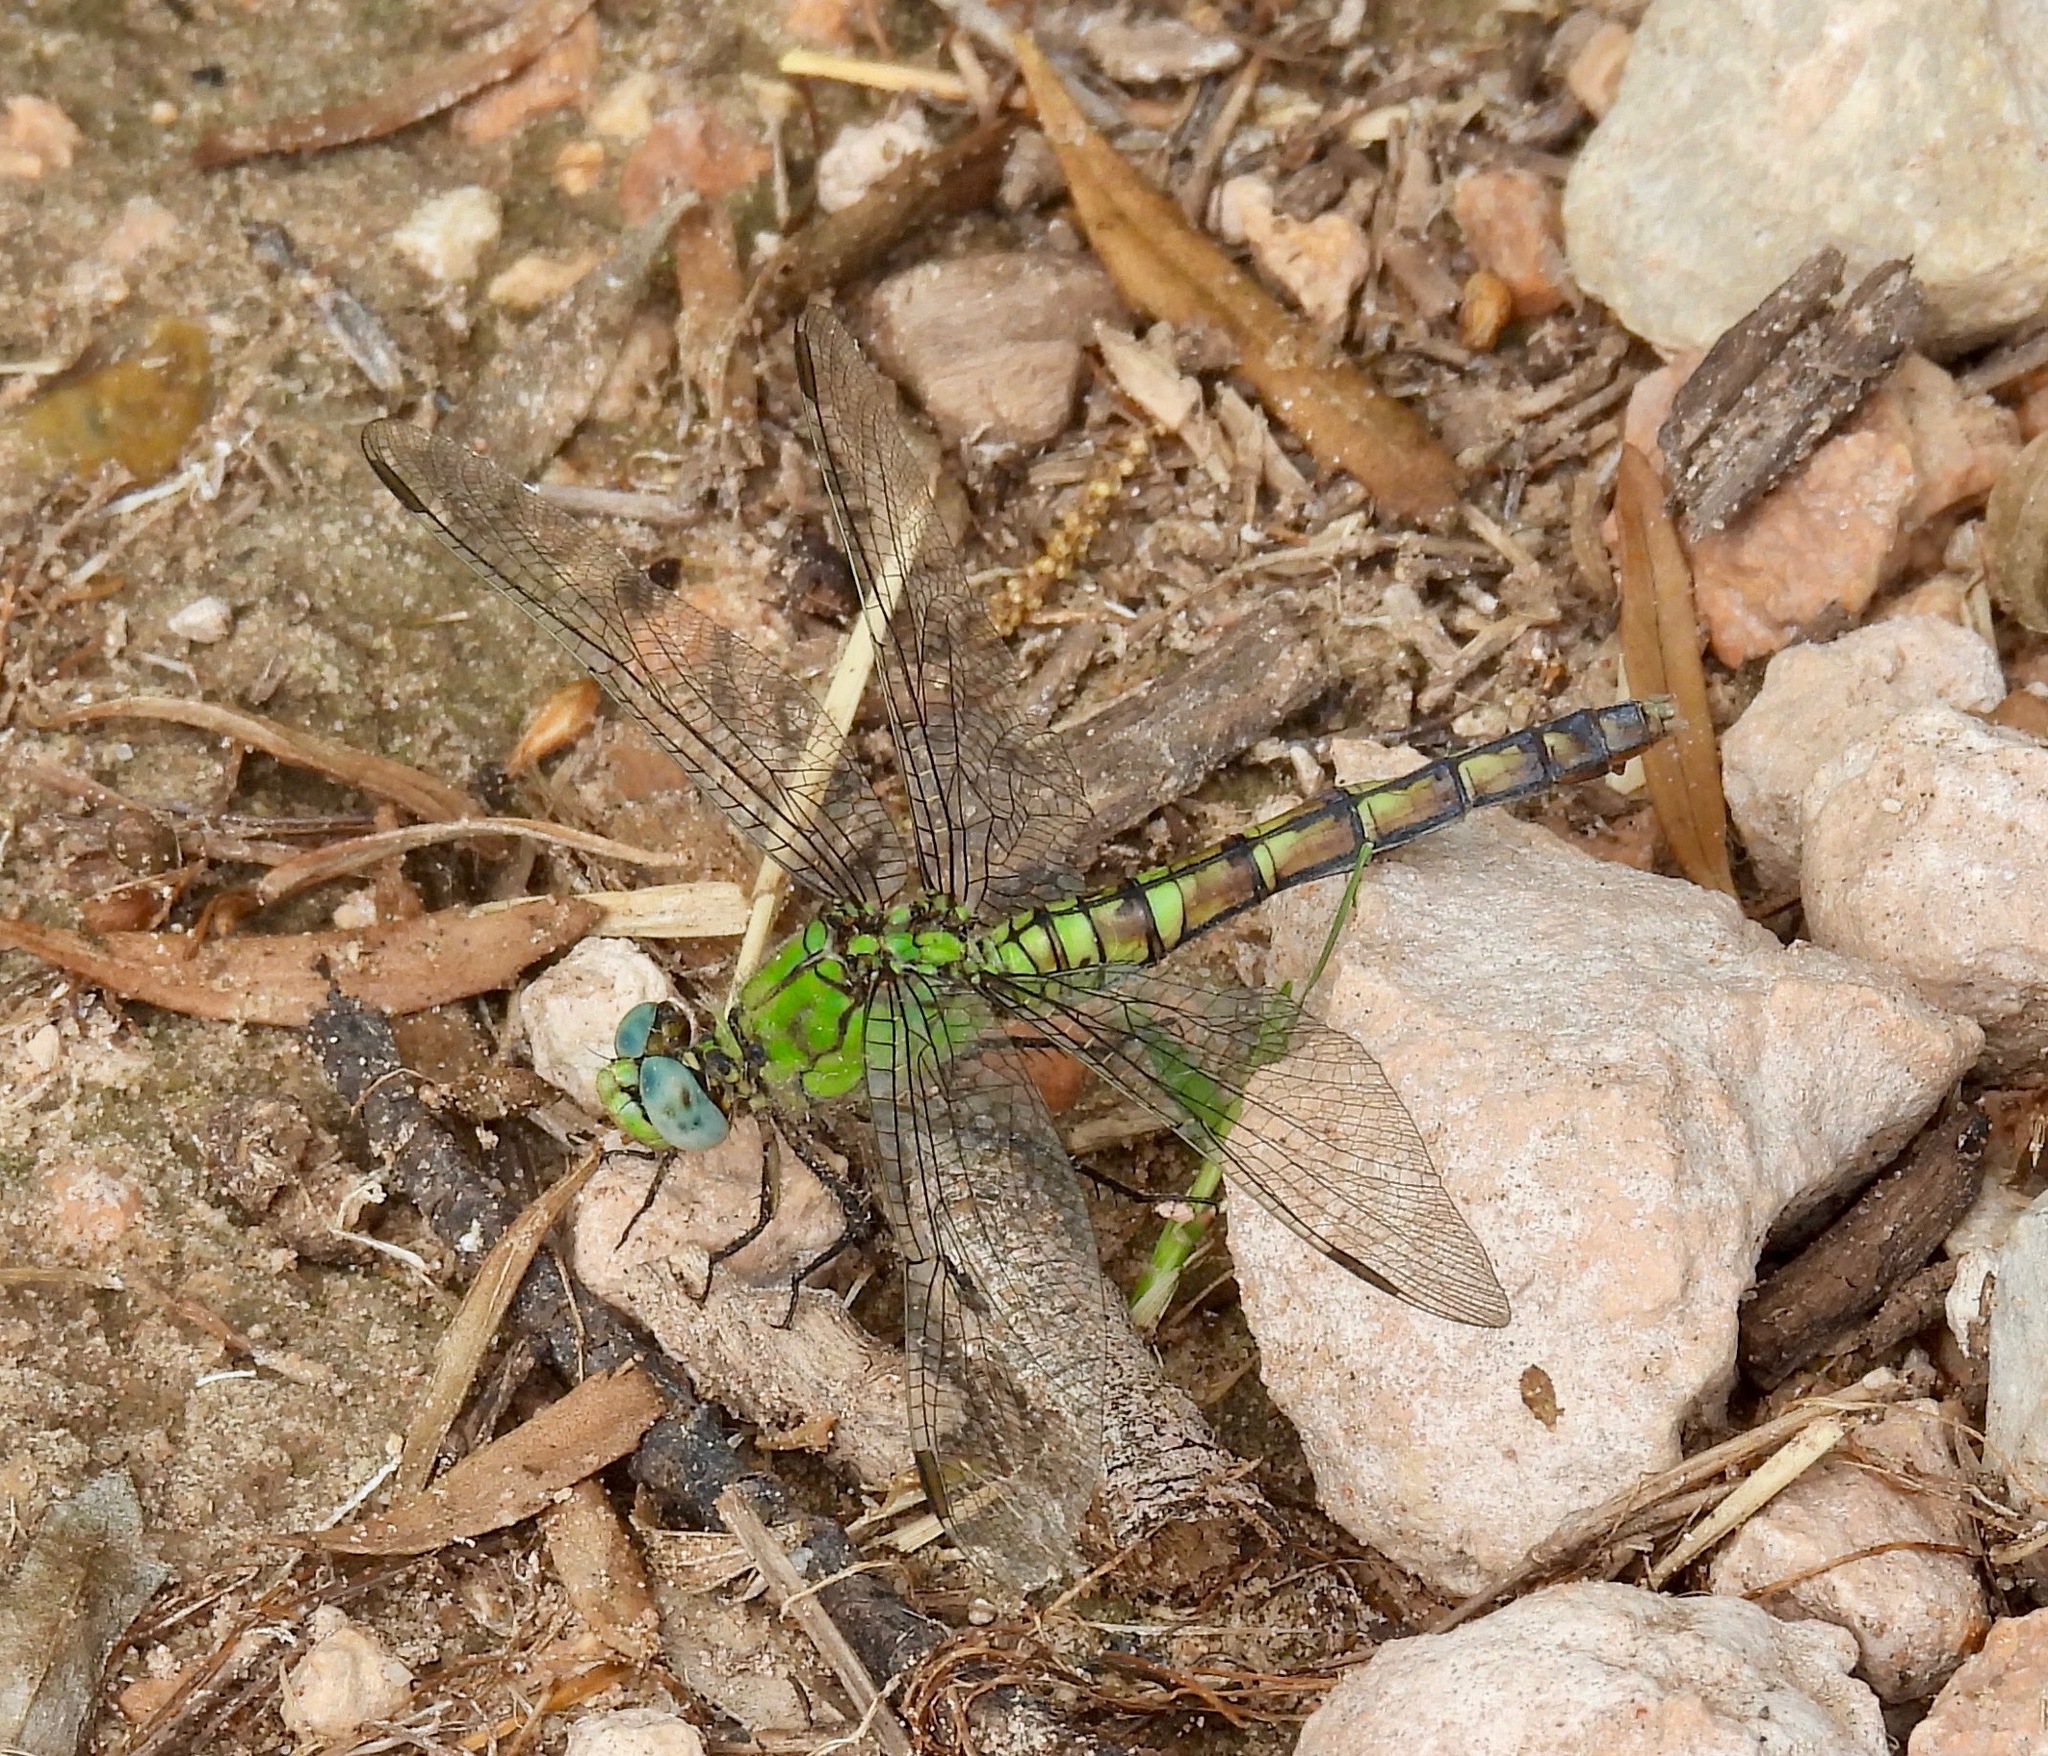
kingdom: Animalia
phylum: Arthropoda
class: Insecta
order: Odonata
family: Libellulidae
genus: Erythemis
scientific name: Erythemis collocata
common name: Western pondhawk
